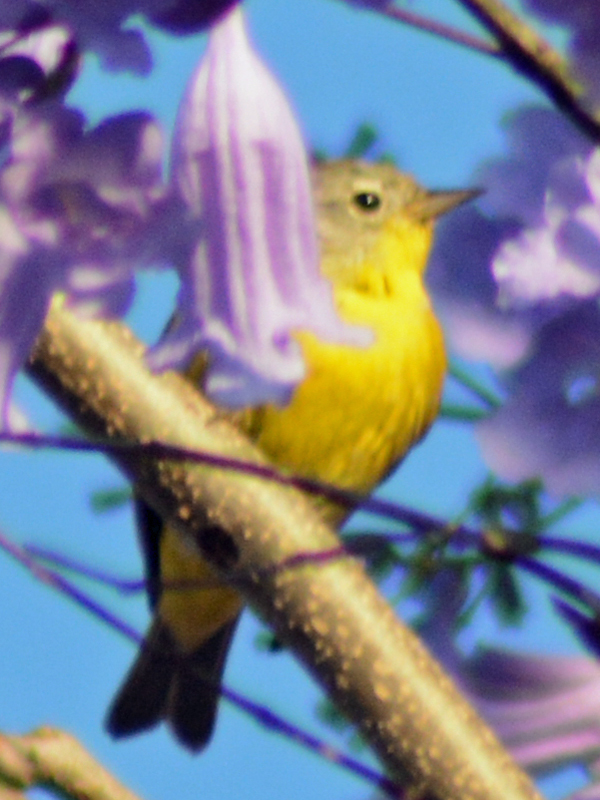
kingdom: Animalia
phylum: Chordata
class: Aves
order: Passeriformes
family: Parulidae
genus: Leiothlypis
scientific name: Leiothlypis ruficapilla
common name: Nashville warbler
